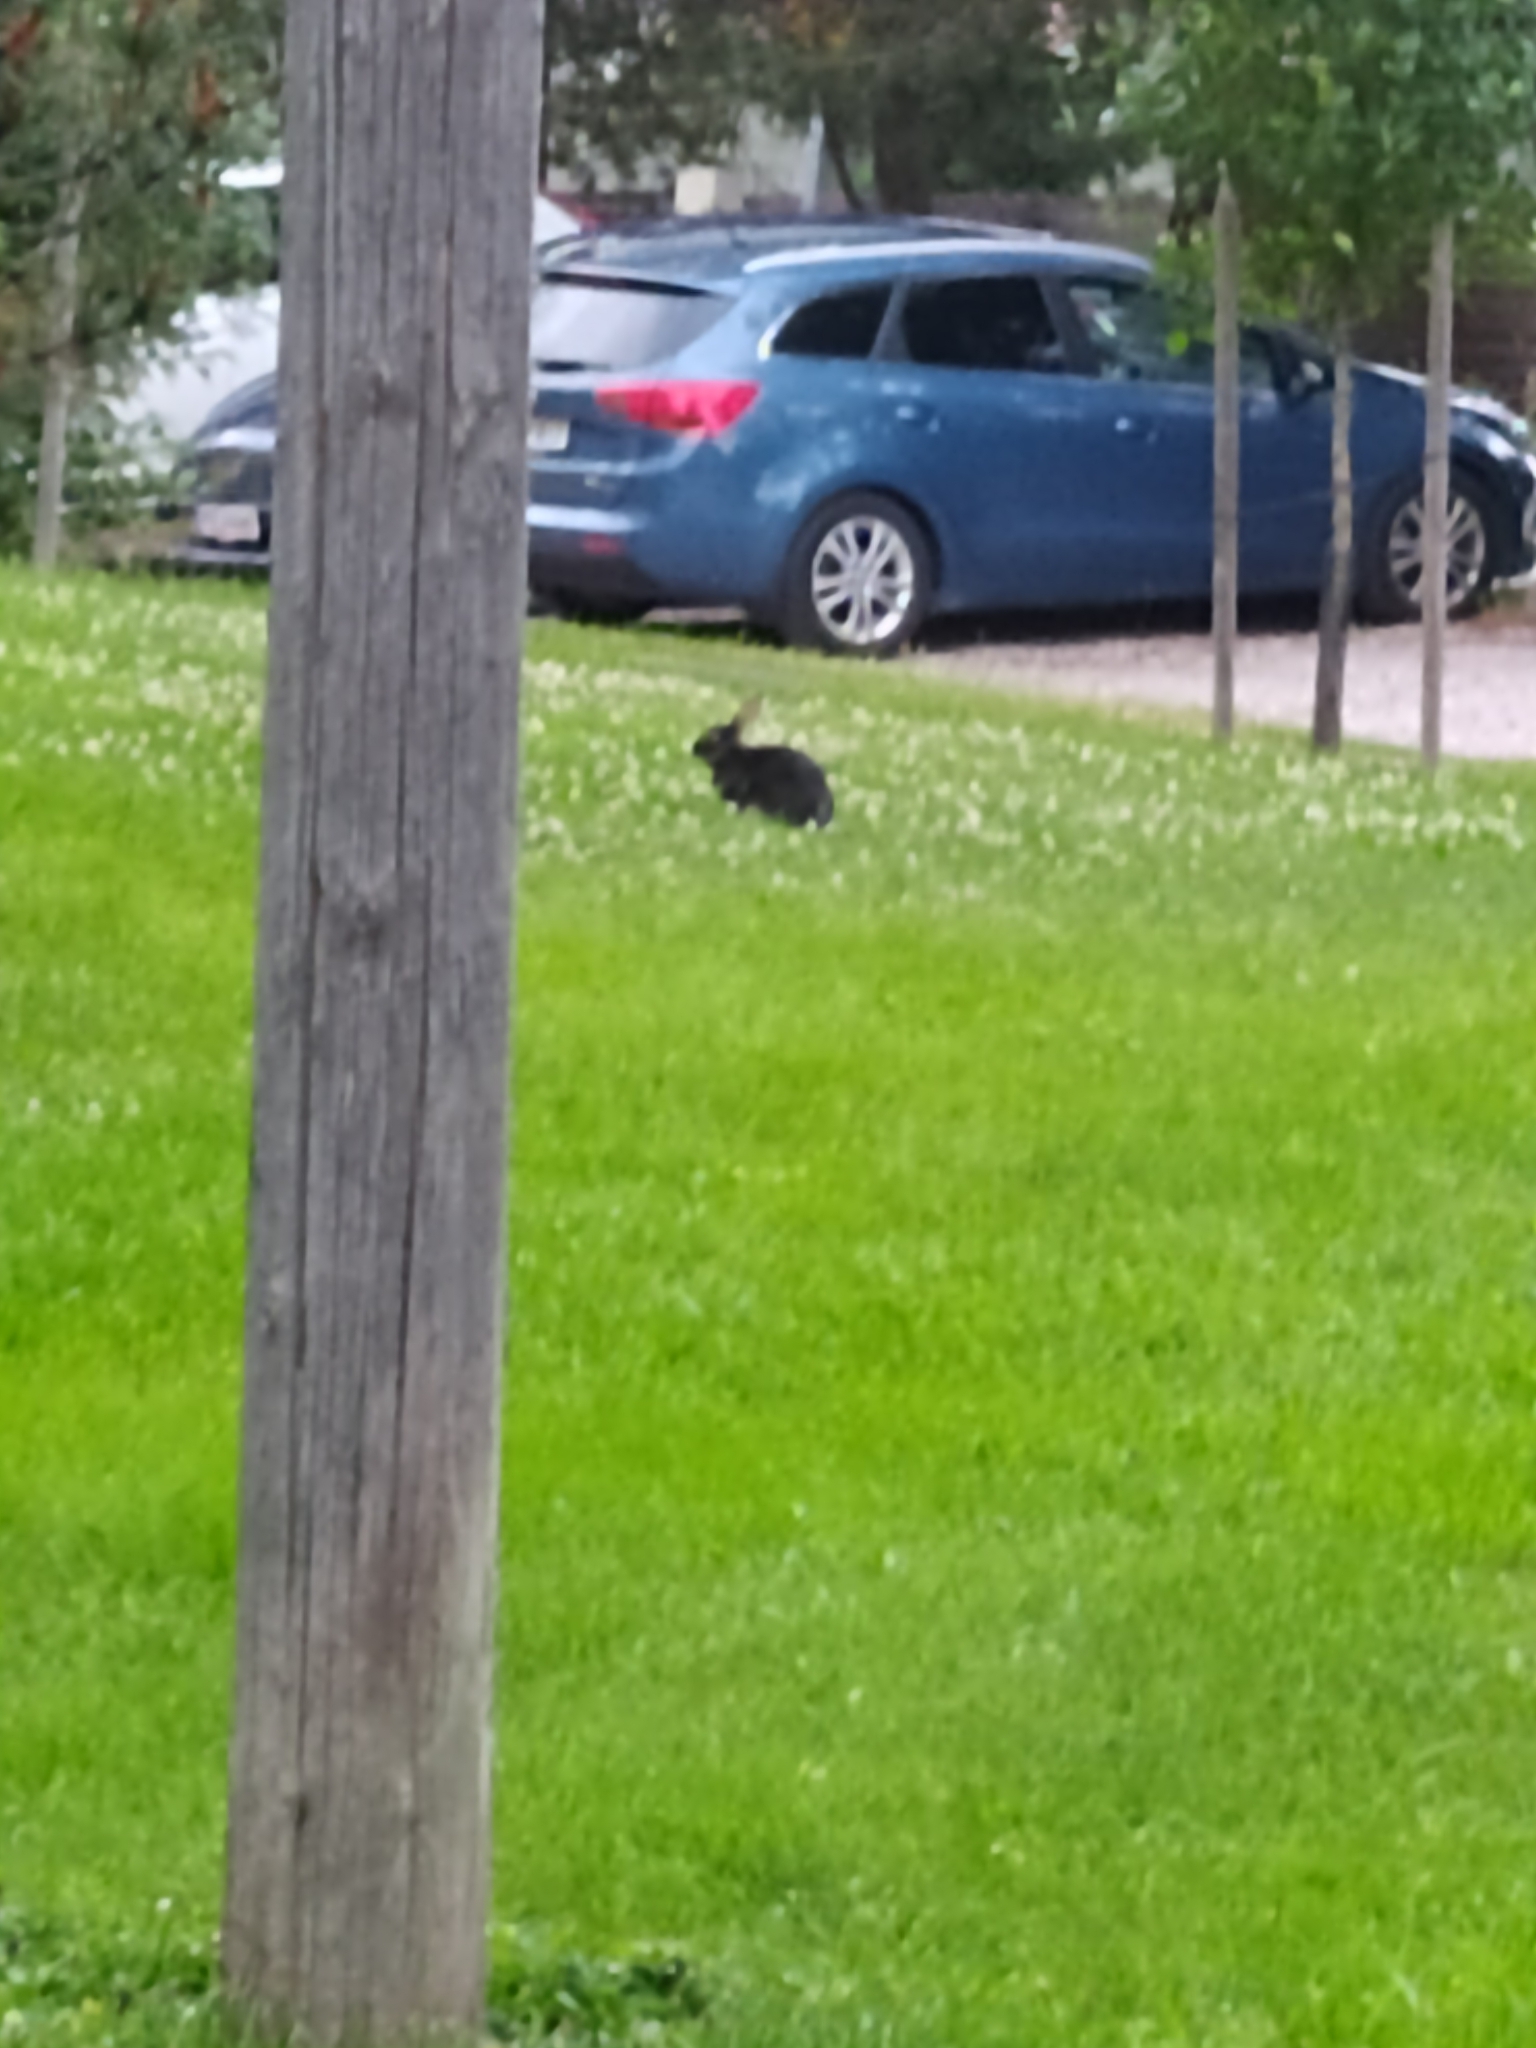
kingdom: Animalia
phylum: Chordata
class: Mammalia
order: Lagomorpha
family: Leporidae
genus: Oryctolagus
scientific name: Oryctolagus cuniculus
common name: European rabbit
